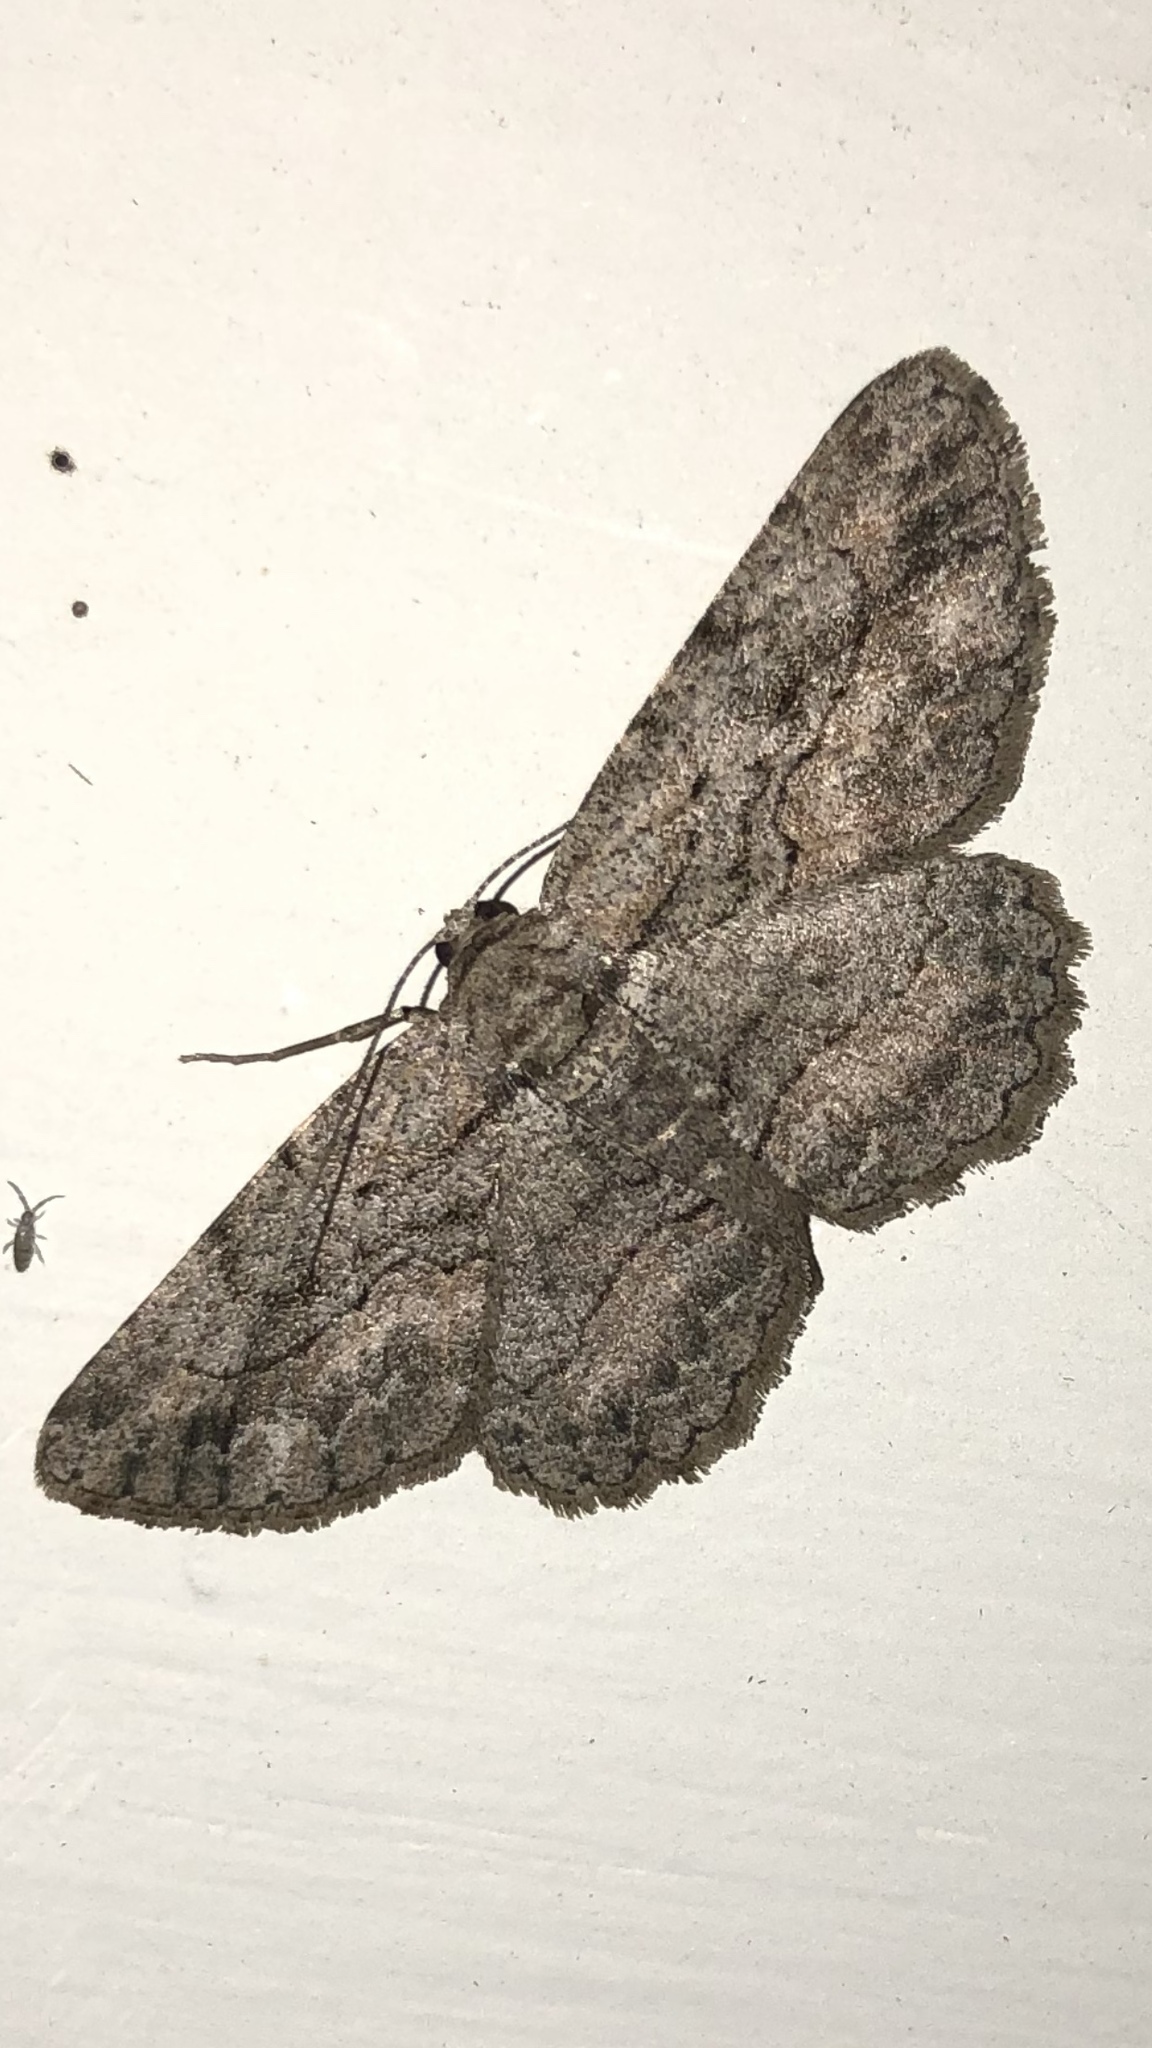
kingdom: Animalia
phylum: Arthropoda
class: Insecta
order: Lepidoptera
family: Geometridae
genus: Anavitrinella
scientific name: Anavitrinella pampinaria
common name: Common gray
